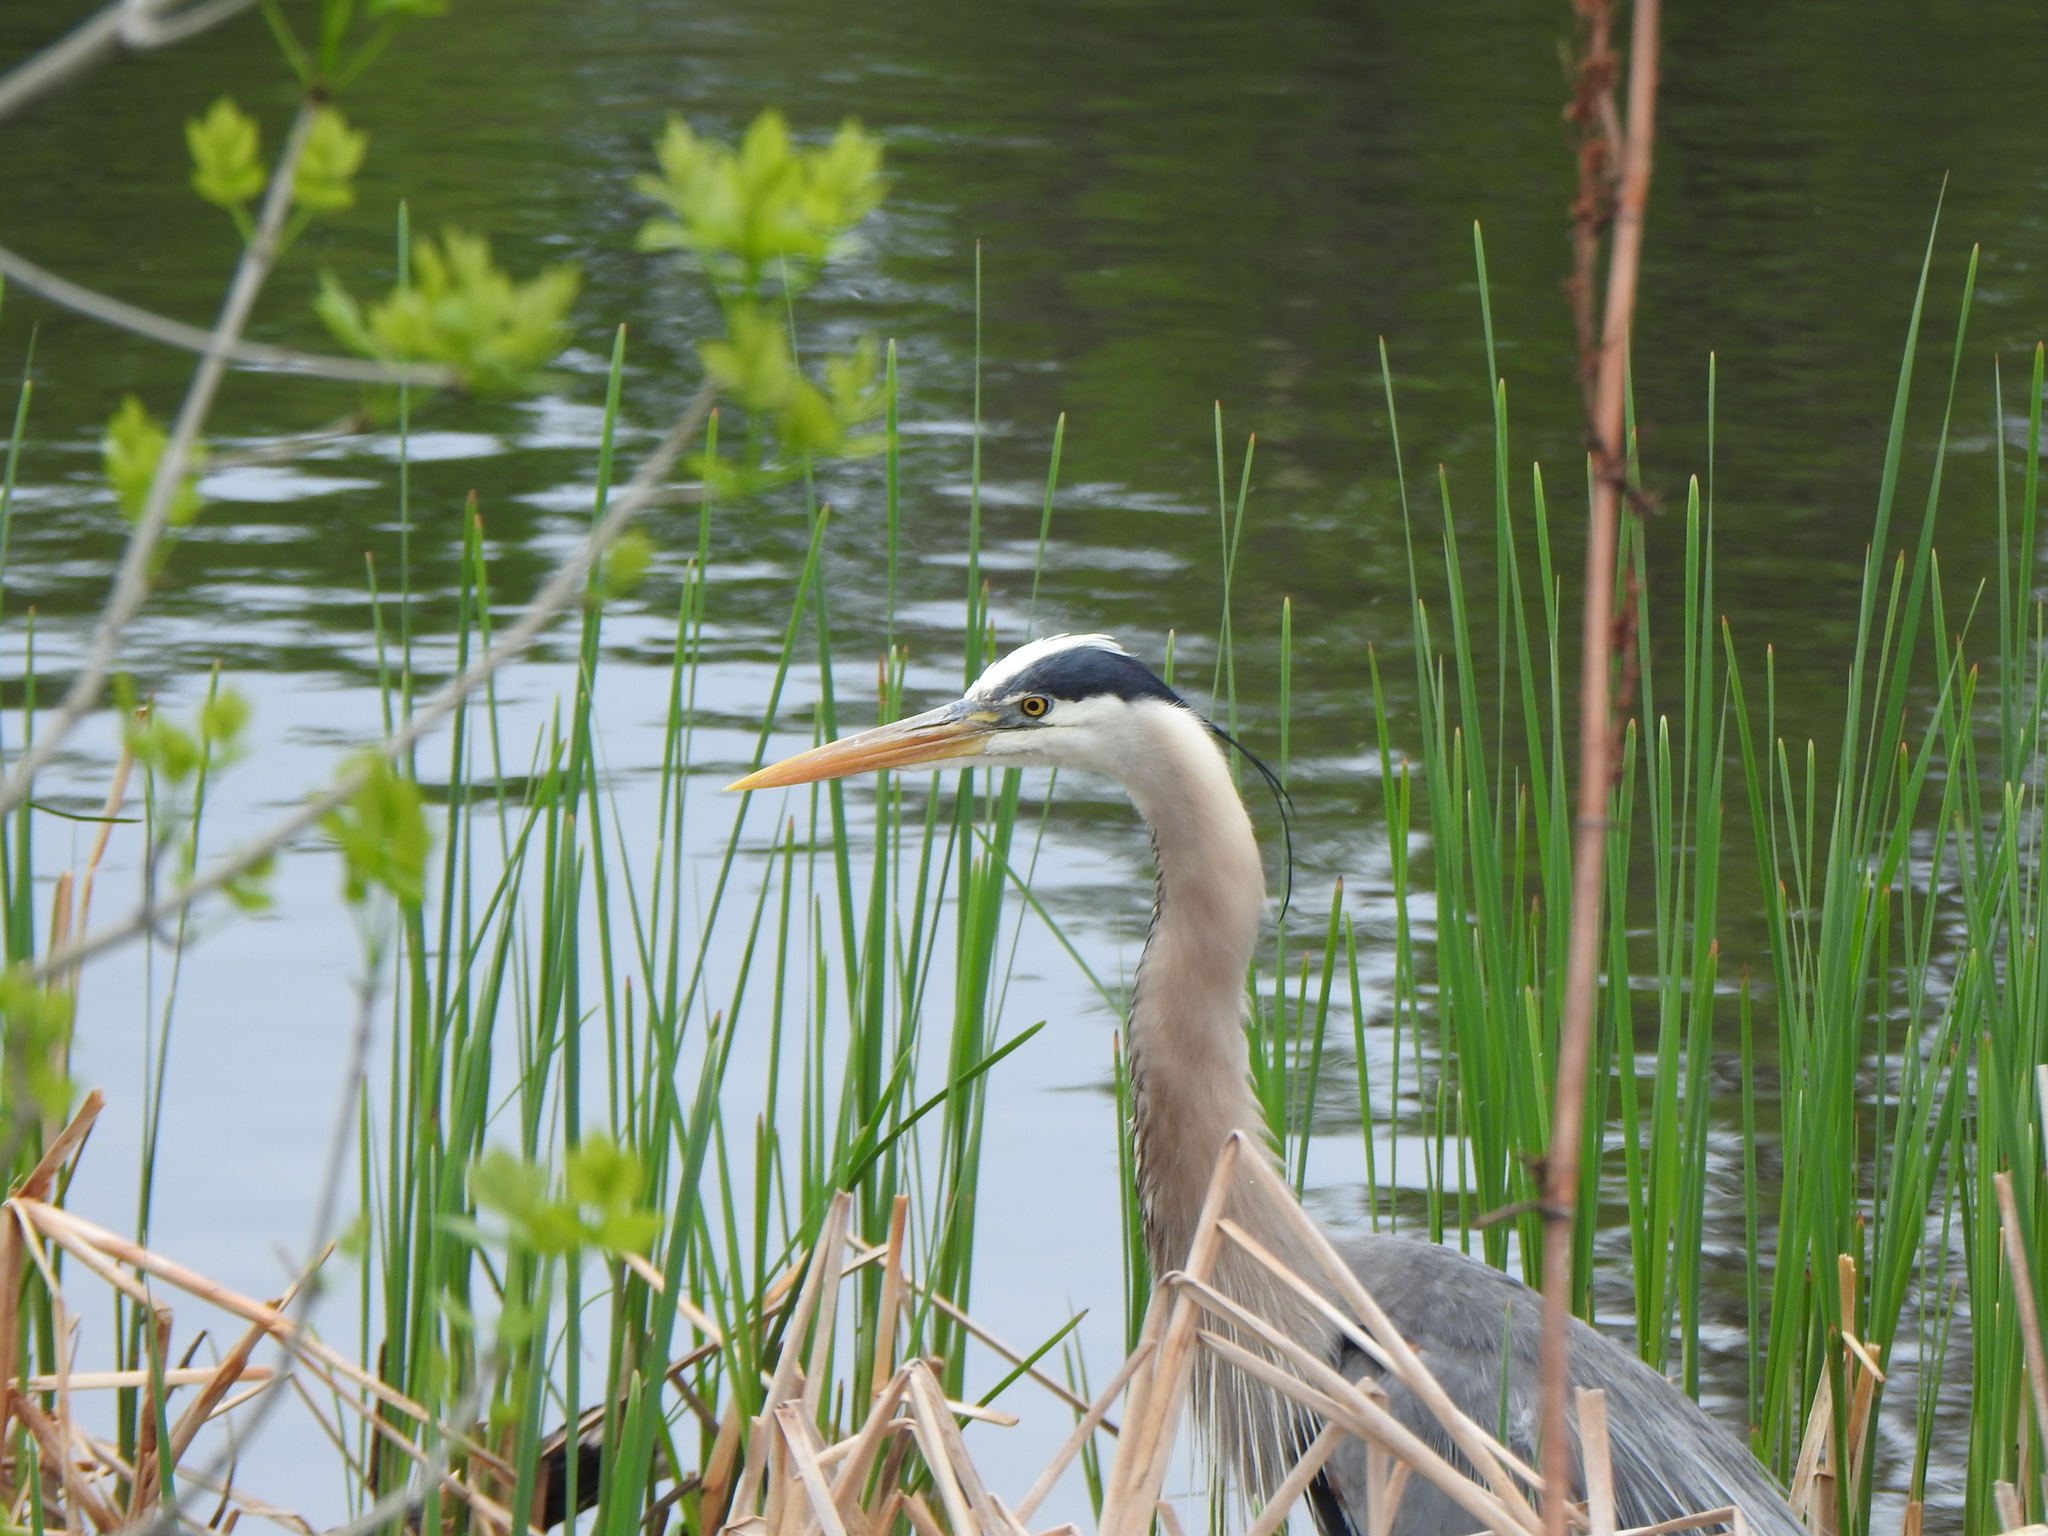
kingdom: Animalia
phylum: Chordata
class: Aves
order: Pelecaniformes
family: Ardeidae
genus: Ardea
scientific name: Ardea herodias
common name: Great blue heron
